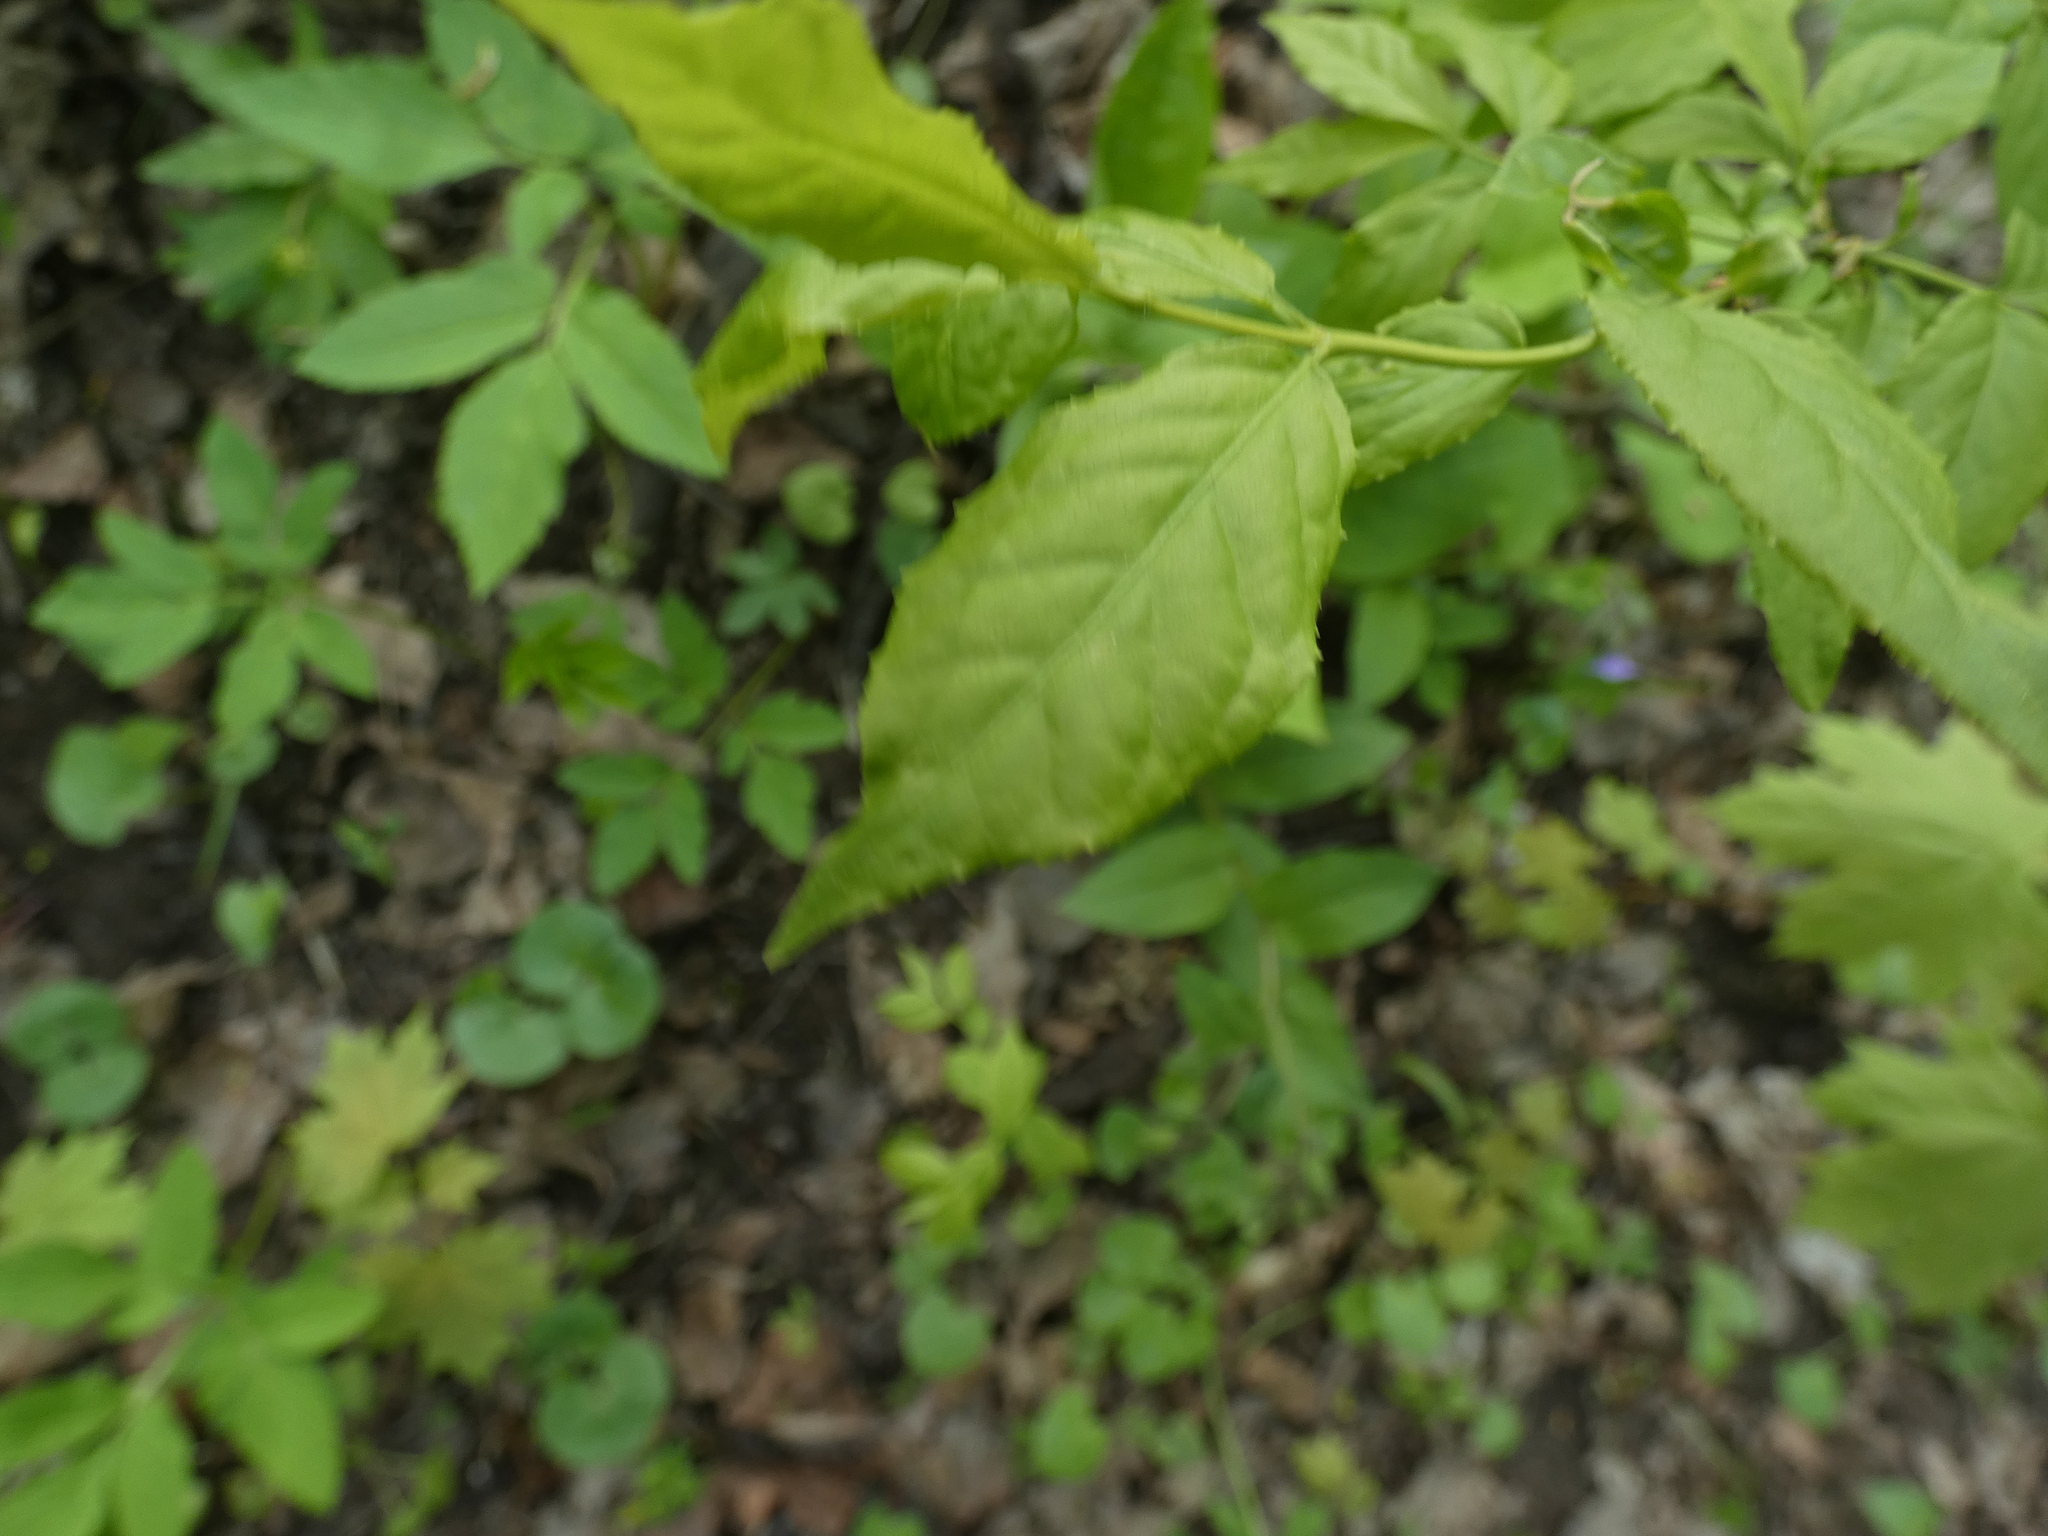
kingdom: Plantae
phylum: Tracheophyta
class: Magnoliopsida
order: Celastrales
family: Celastraceae
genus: Euonymus
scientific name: Euonymus verrucosus
